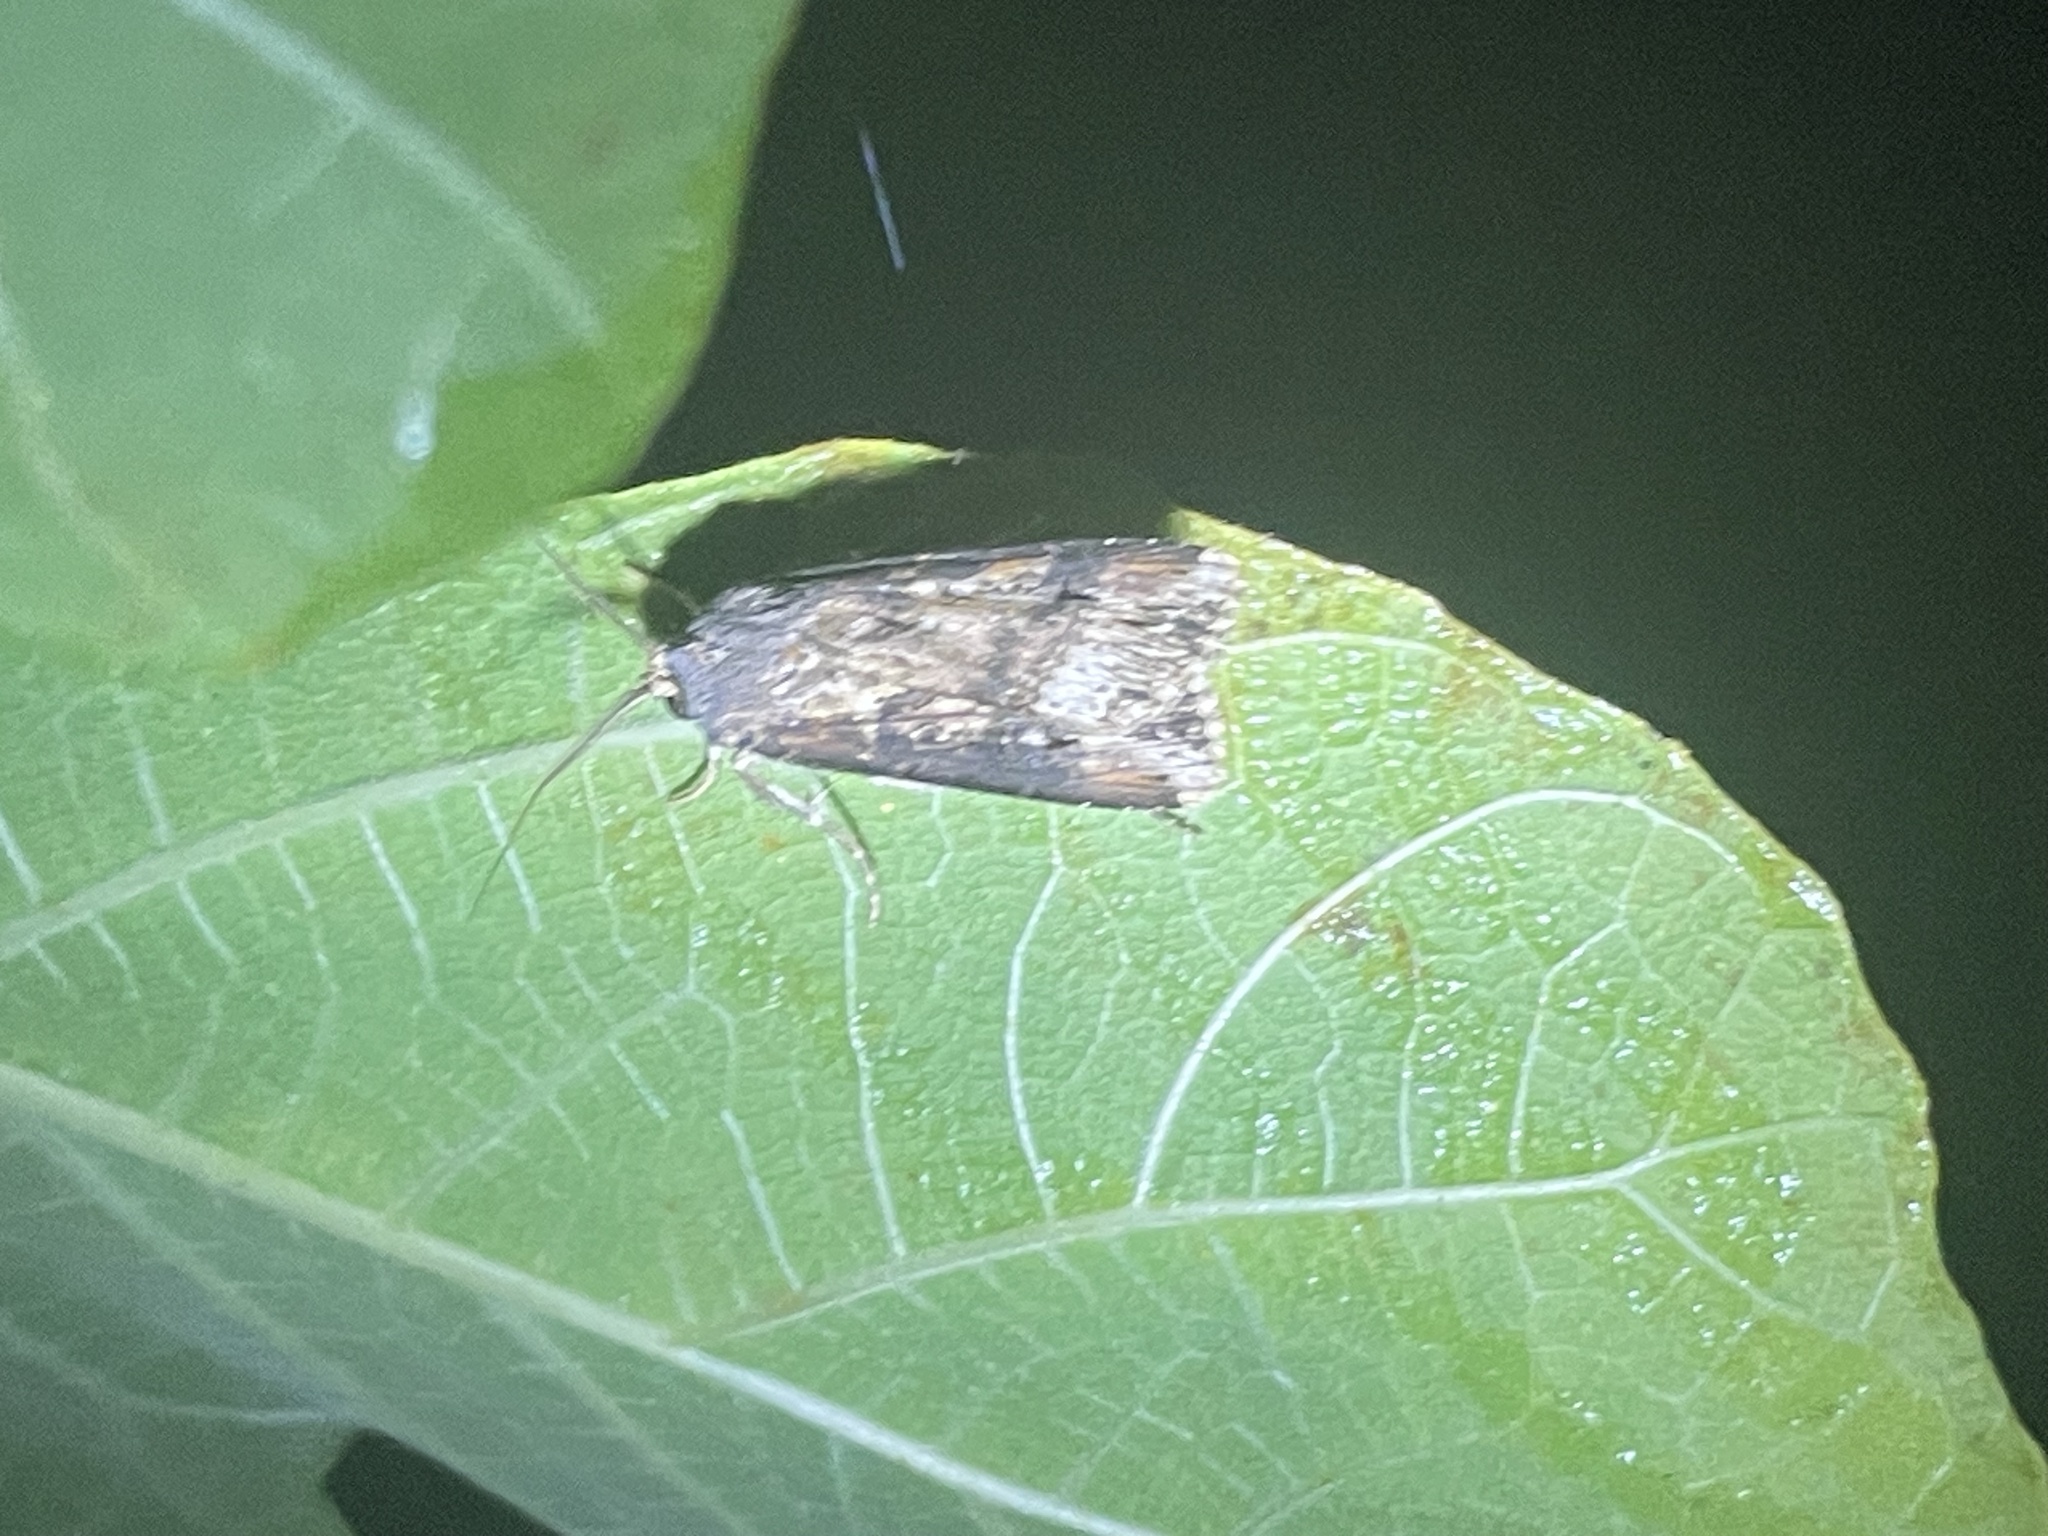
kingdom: Animalia
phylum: Arthropoda
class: Insecta
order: Lepidoptera
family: Noctuidae
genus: Agrotis
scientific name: Agrotis ipsilon
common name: Dark sword-grass
